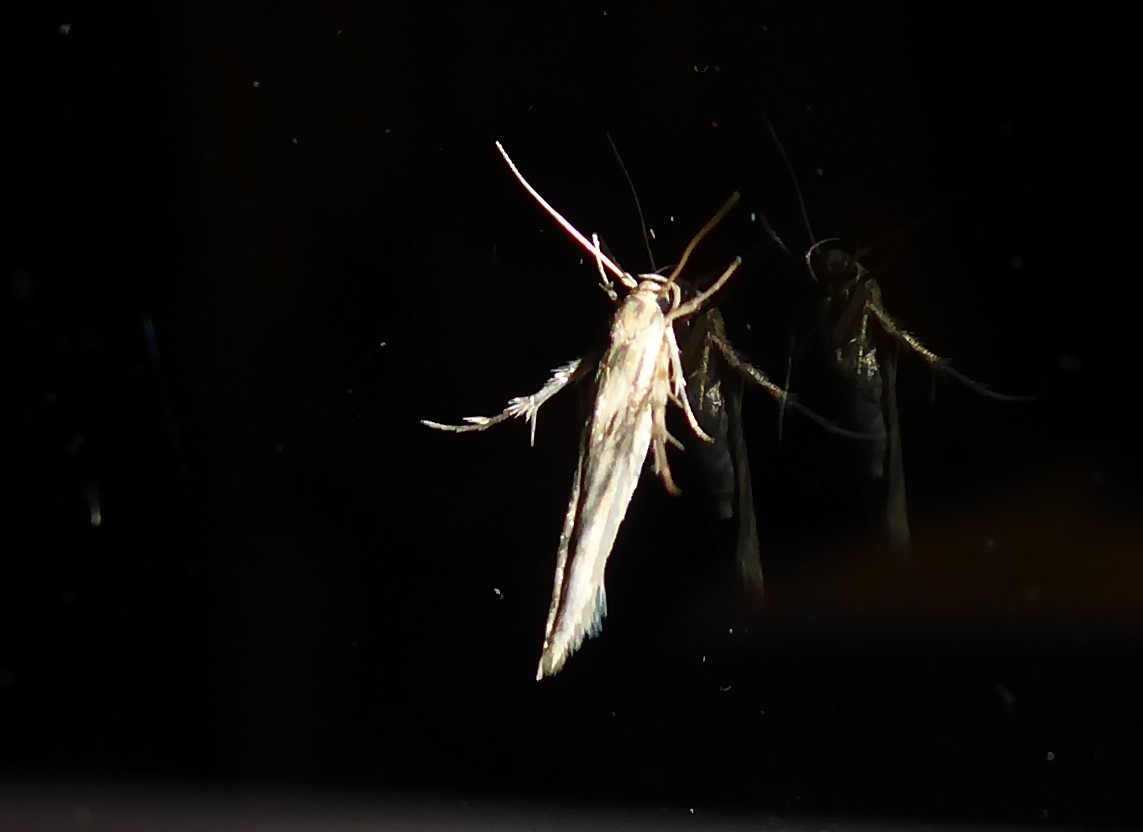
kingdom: Animalia
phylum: Arthropoda
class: Insecta
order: Lepidoptera
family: Stathmopodidae
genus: Stathmopoda
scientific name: Stathmopoda plumbiflua
